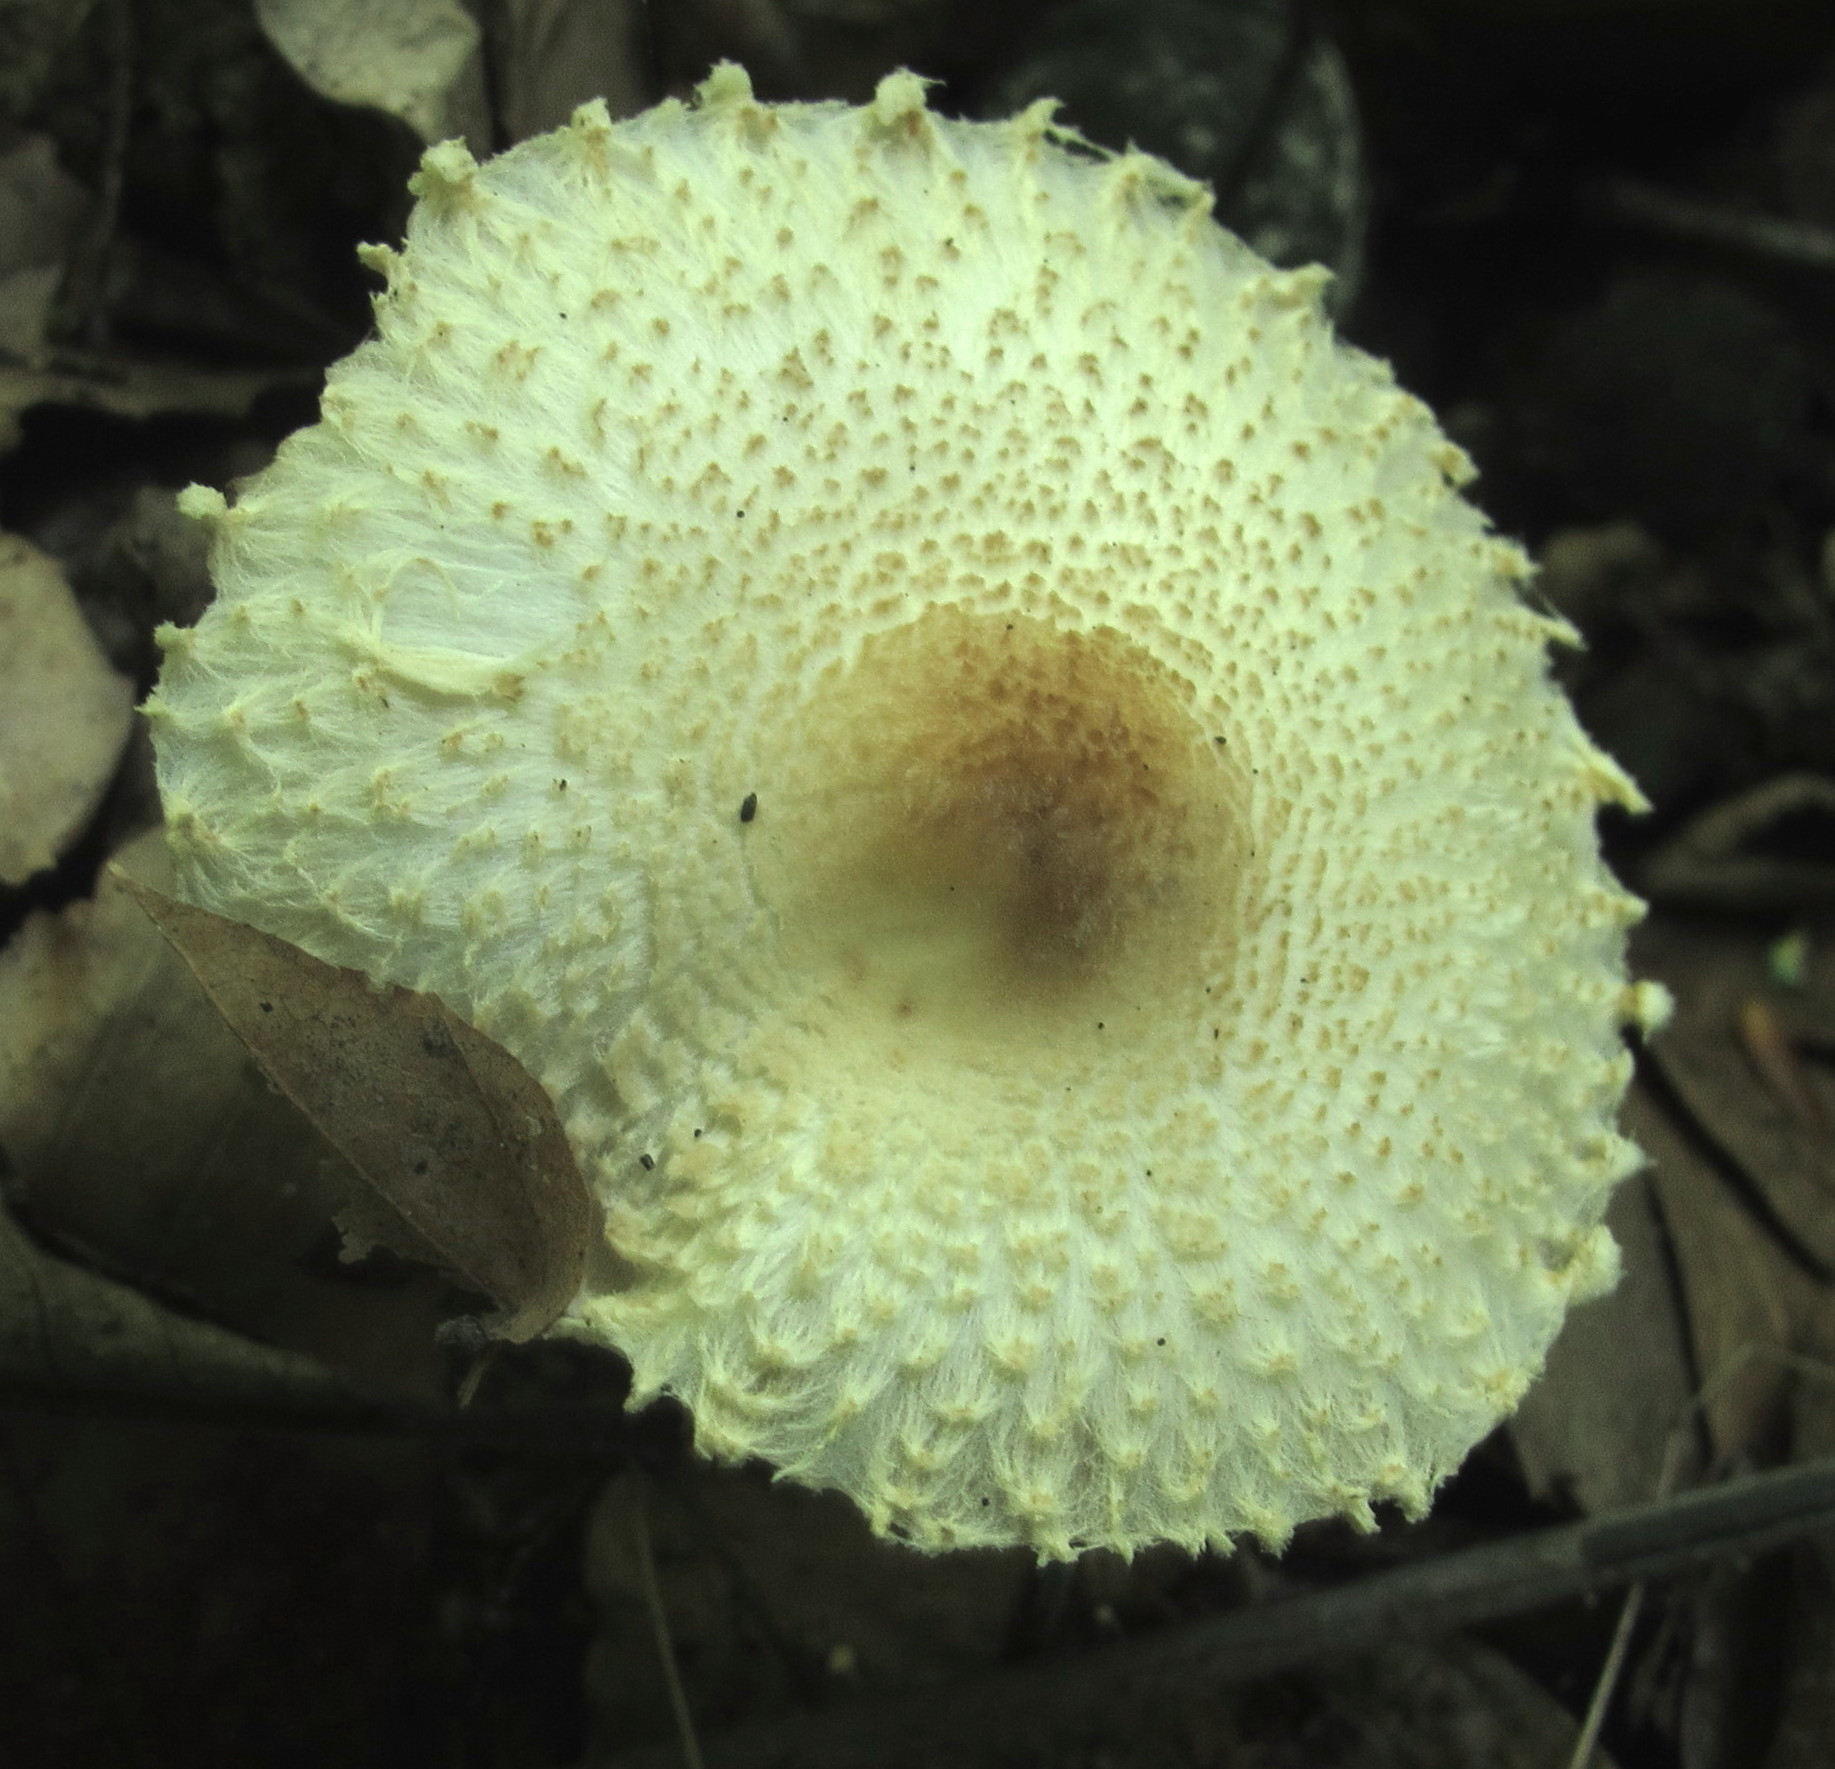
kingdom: Fungi
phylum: Basidiomycota
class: Agaricomycetes
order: Agaricales
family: Agaricaceae
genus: Lepiota
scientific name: Lepiota clypeolaria
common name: Shield dapperling
